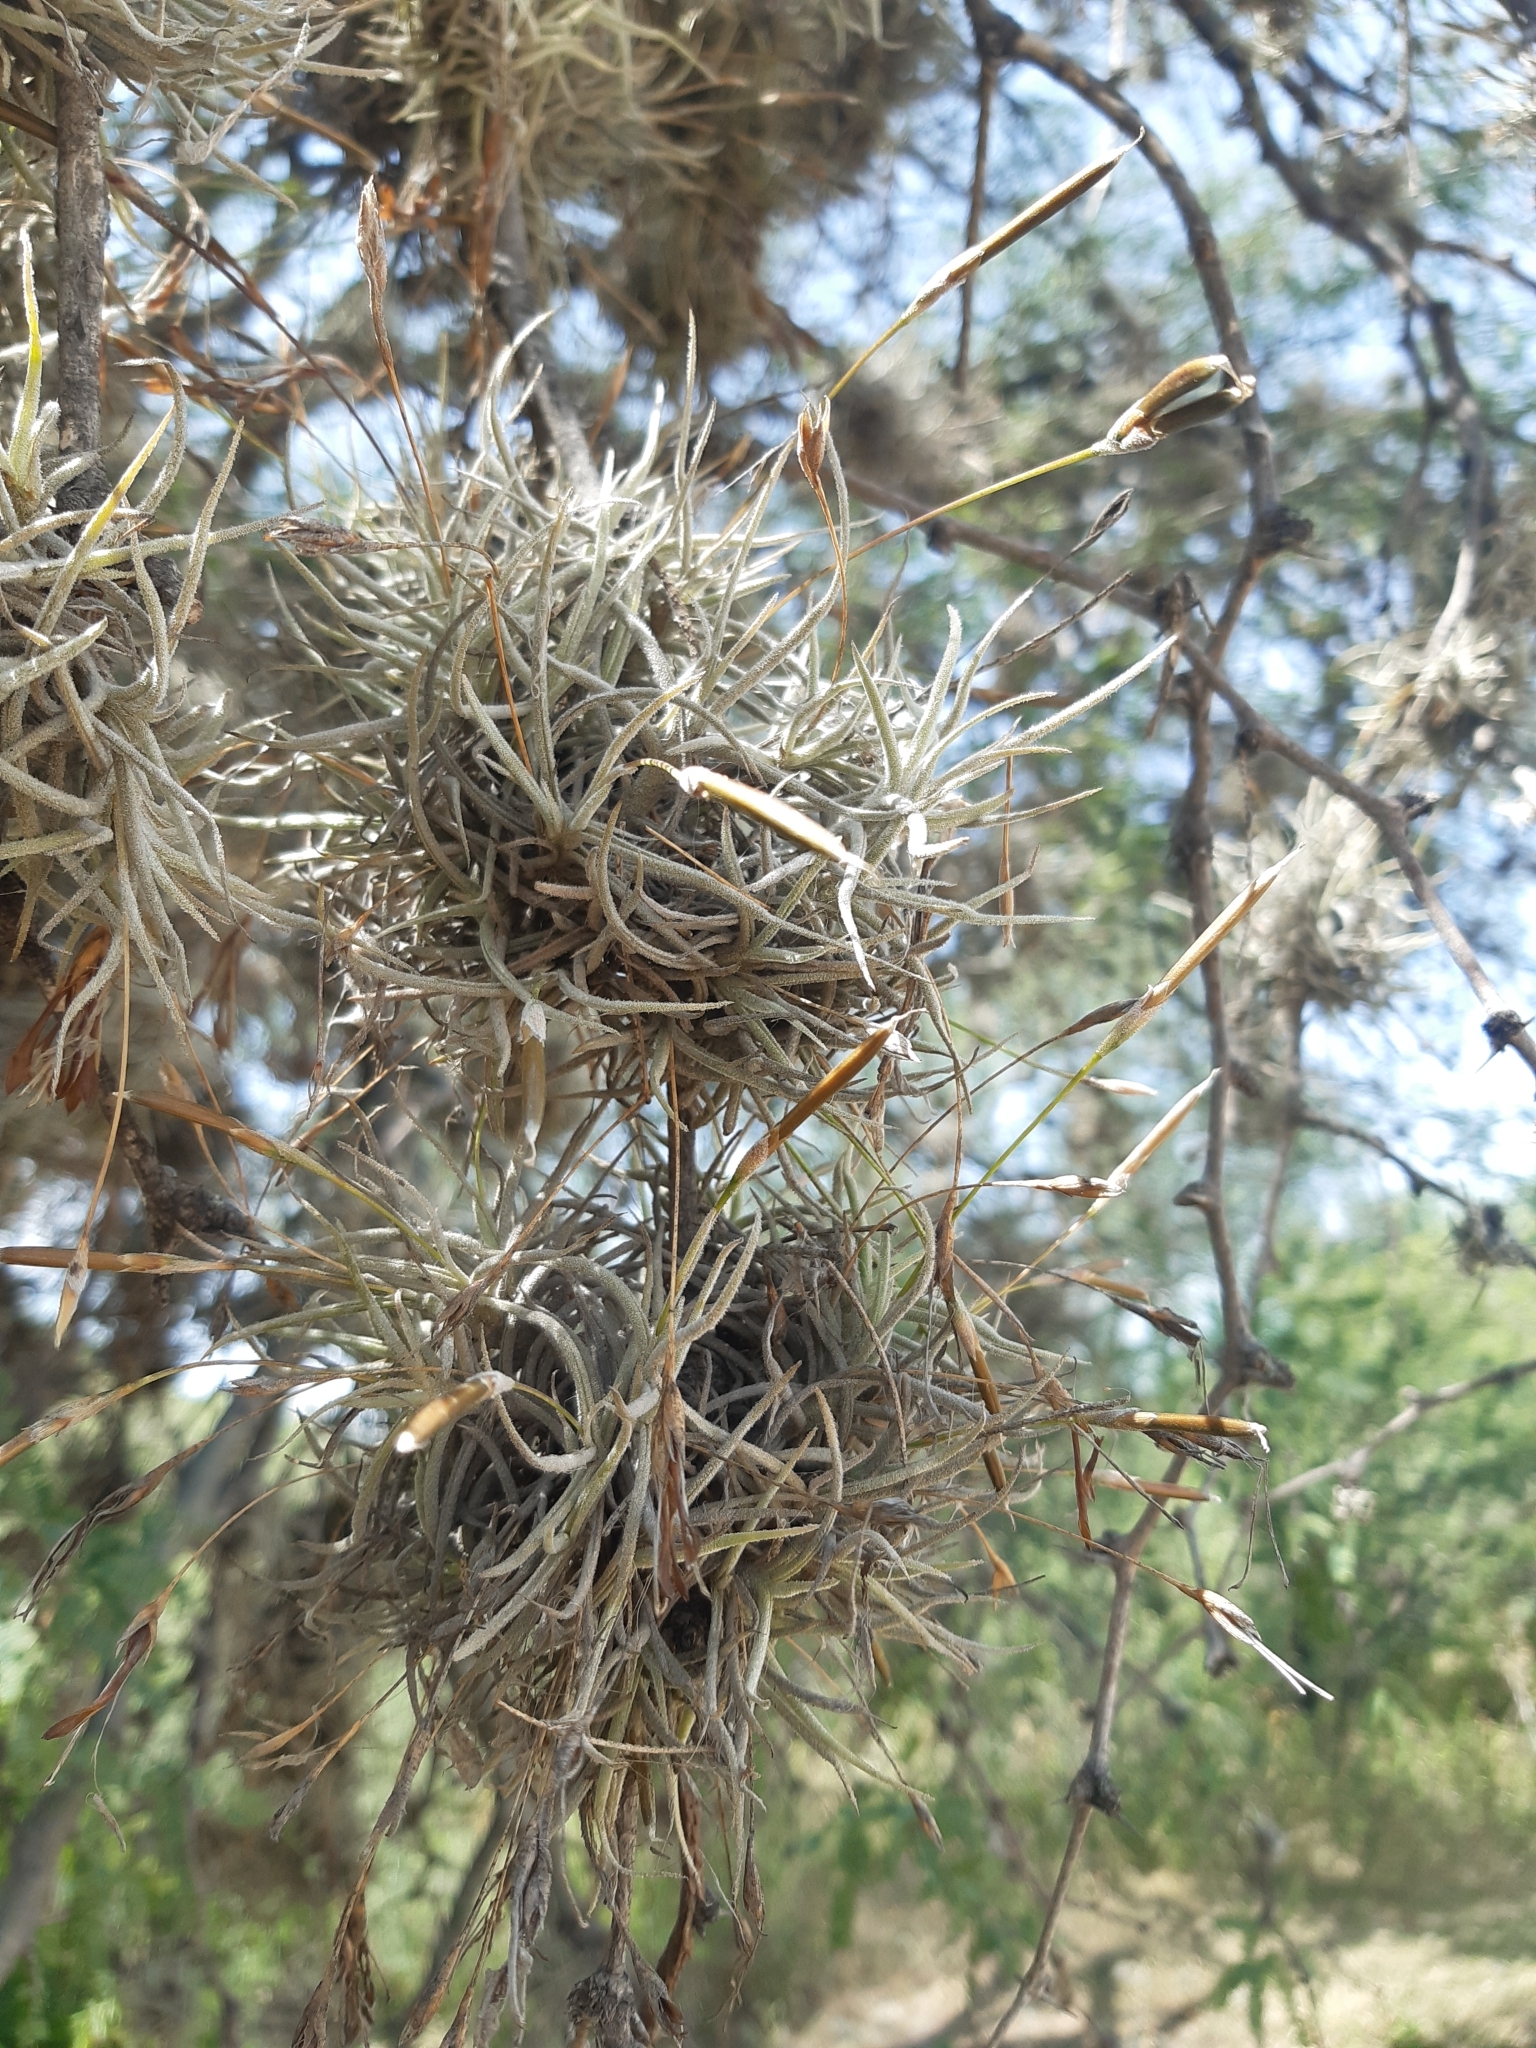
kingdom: Plantae
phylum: Tracheophyta
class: Liliopsida
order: Poales
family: Bromeliaceae
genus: Tillandsia
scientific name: Tillandsia recurvata
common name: Small ballmoss
